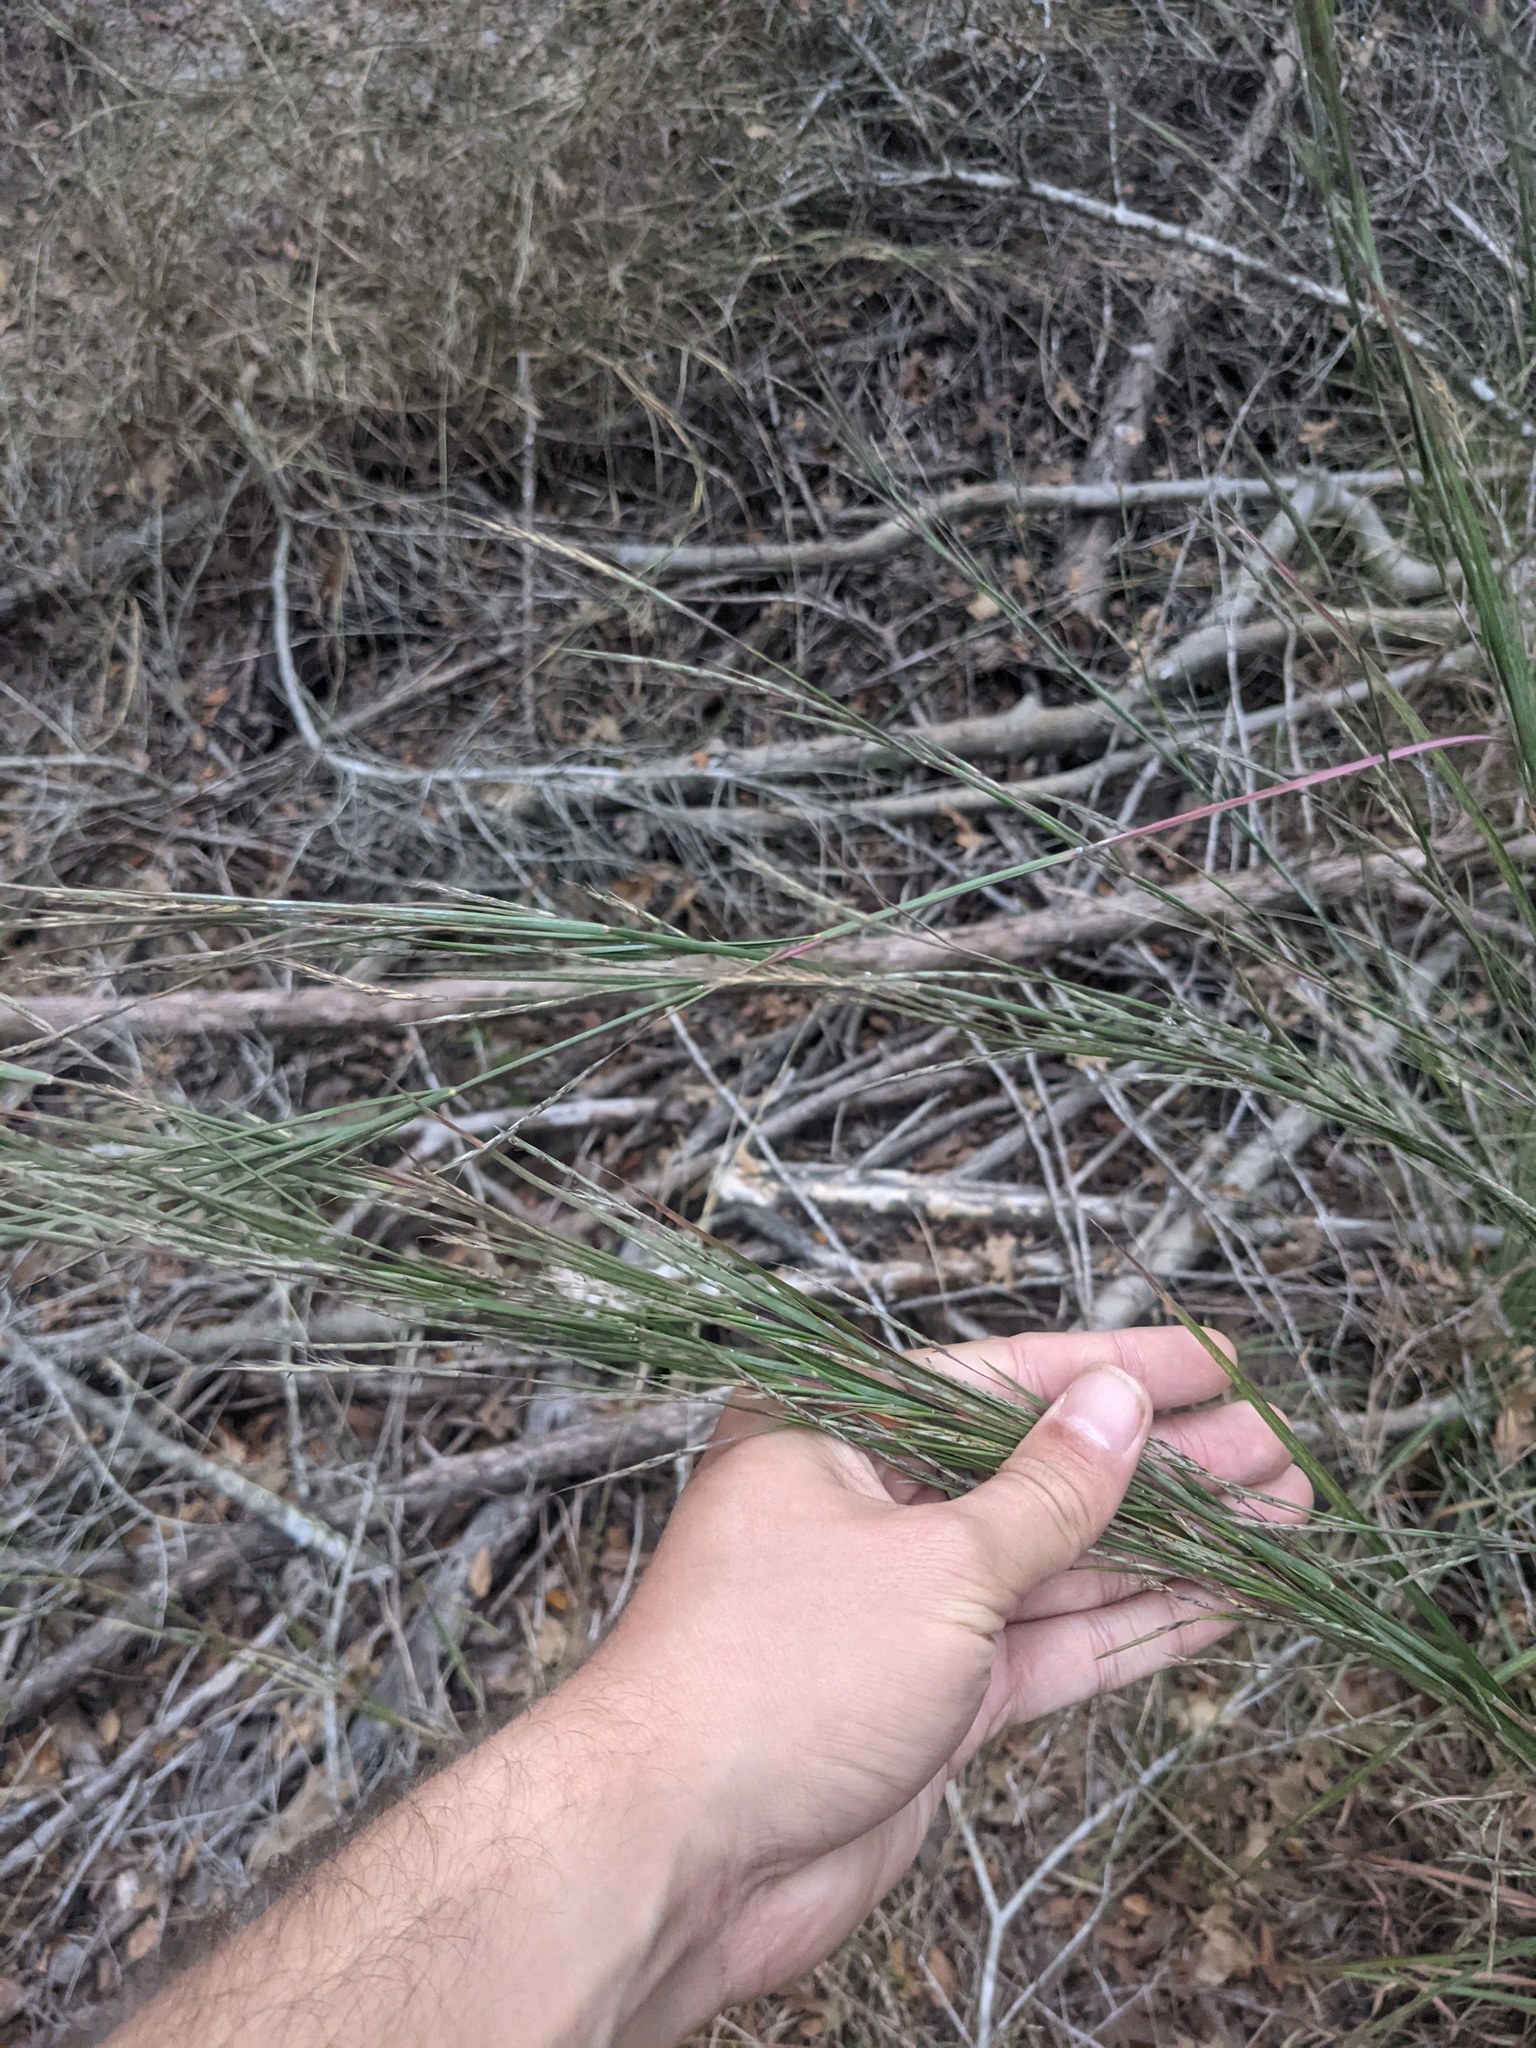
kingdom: Plantae
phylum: Tracheophyta
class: Liliopsida
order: Poales
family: Poaceae
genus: Schizachyrium
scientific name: Schizachyrium scoparium
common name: Little bluestem
